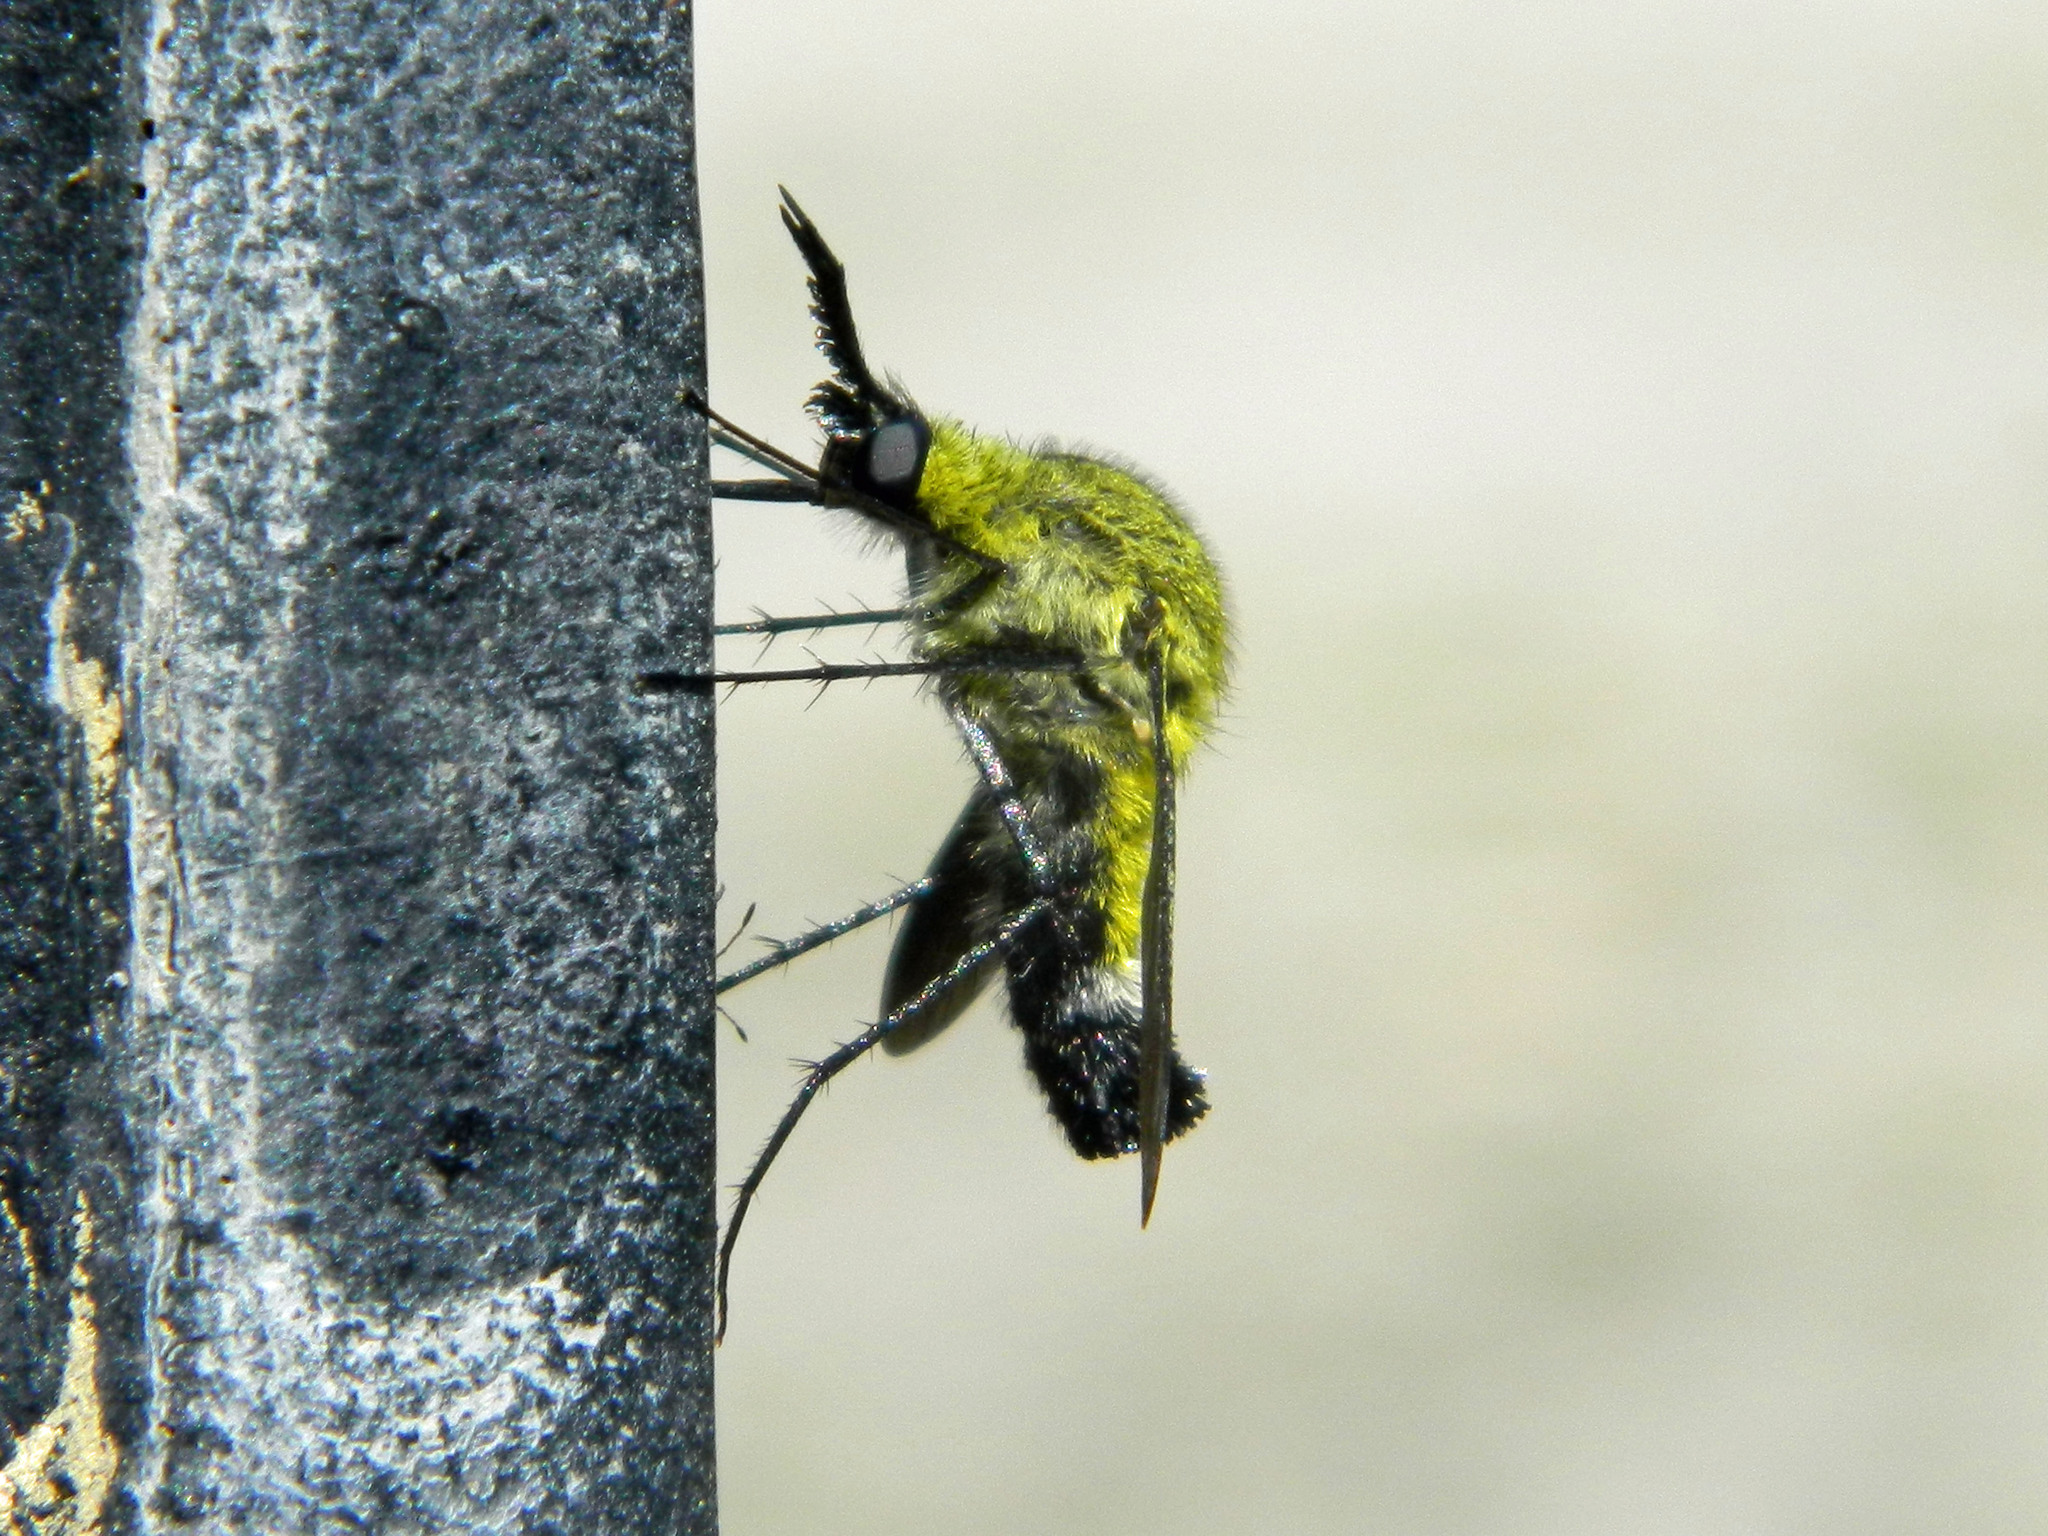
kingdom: Animalia
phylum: Arthropoda
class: Insecta
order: Diptera
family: Bombyliidae
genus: Lepidophora
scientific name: Lepidophora lutea
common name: Hunchback bee fly
